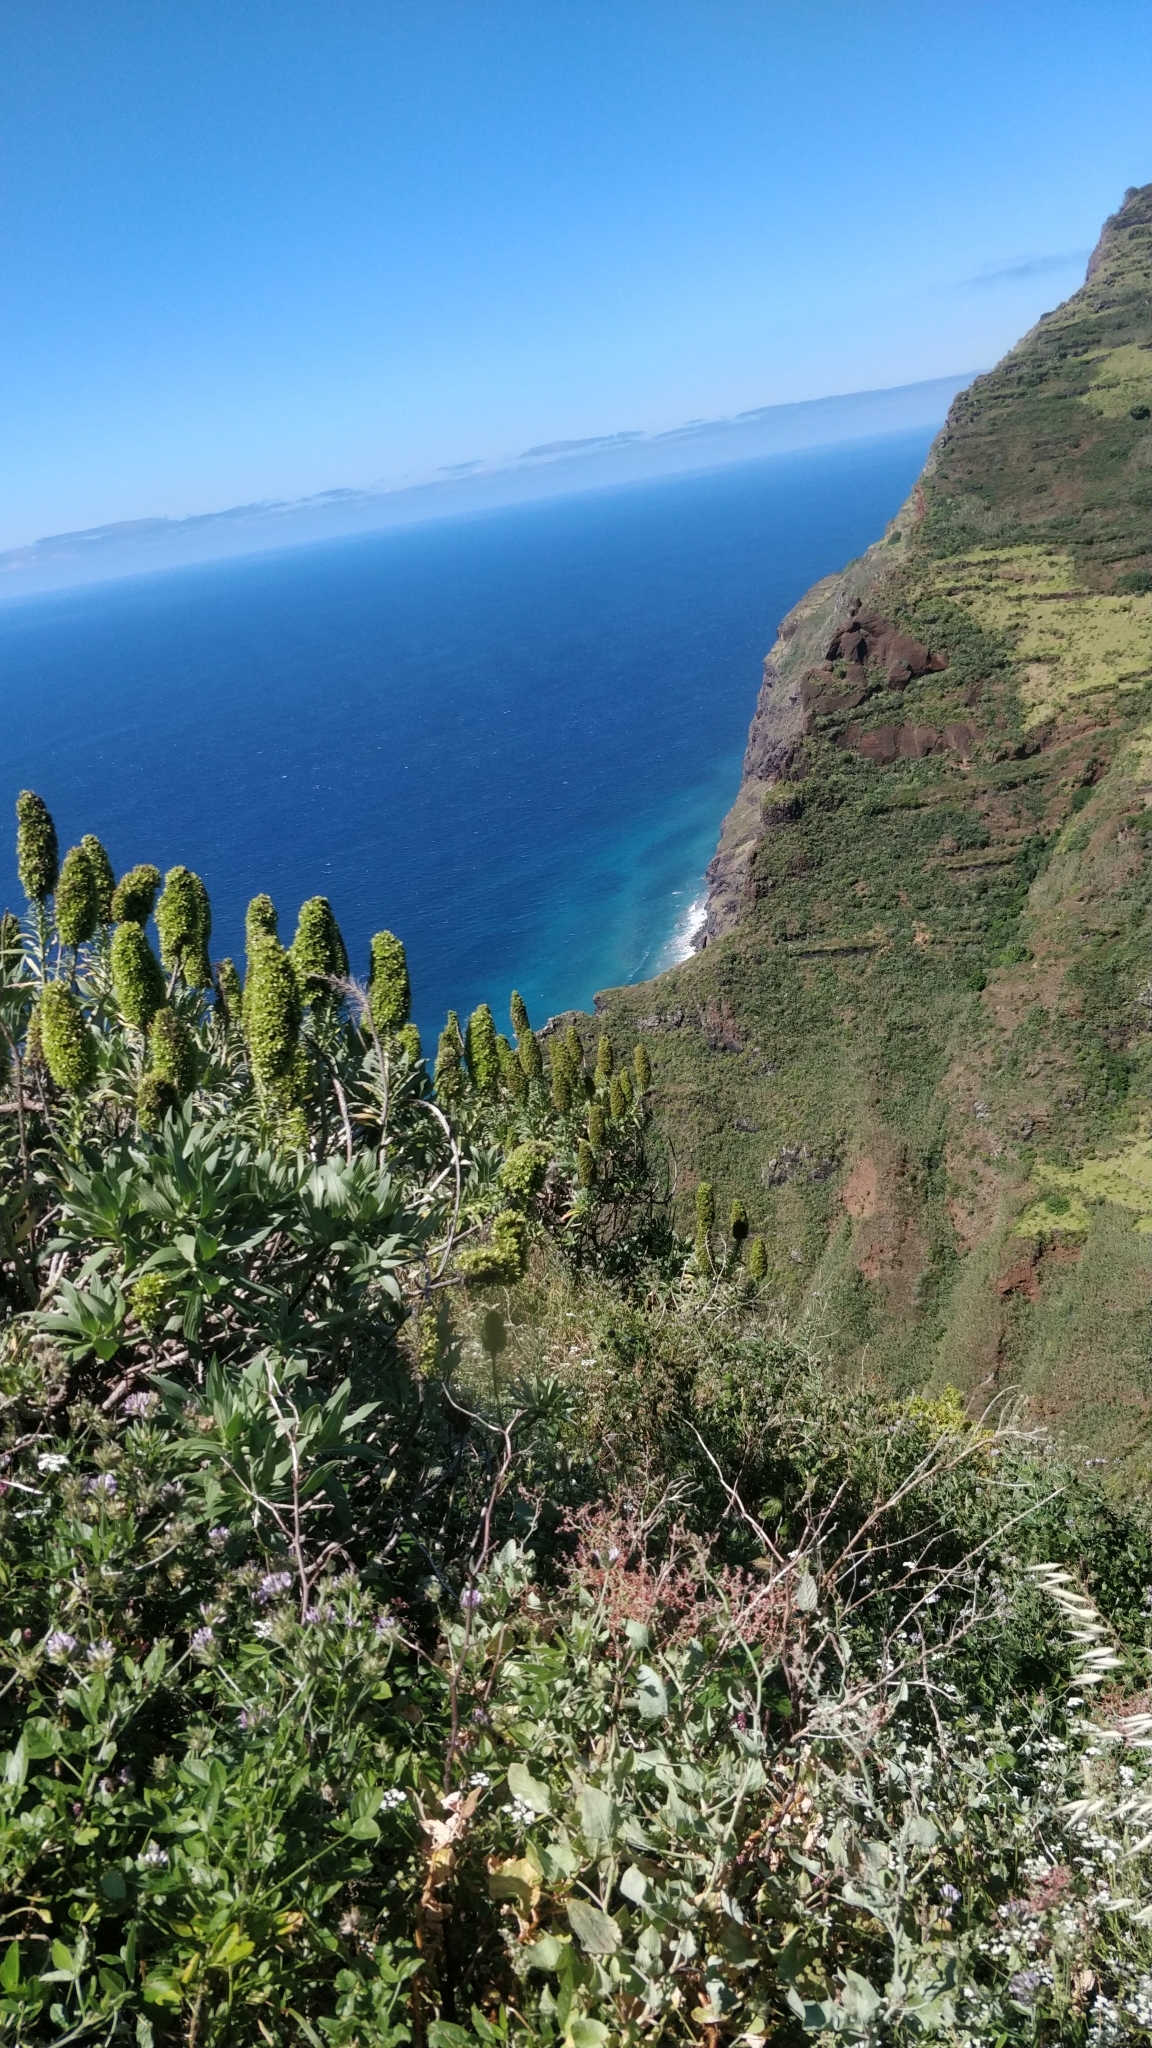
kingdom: Plantae
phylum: Tracheophyta
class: Magnoliopsida
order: Boraginales
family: Boraginaceae
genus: Echium
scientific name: Echium nervosum
